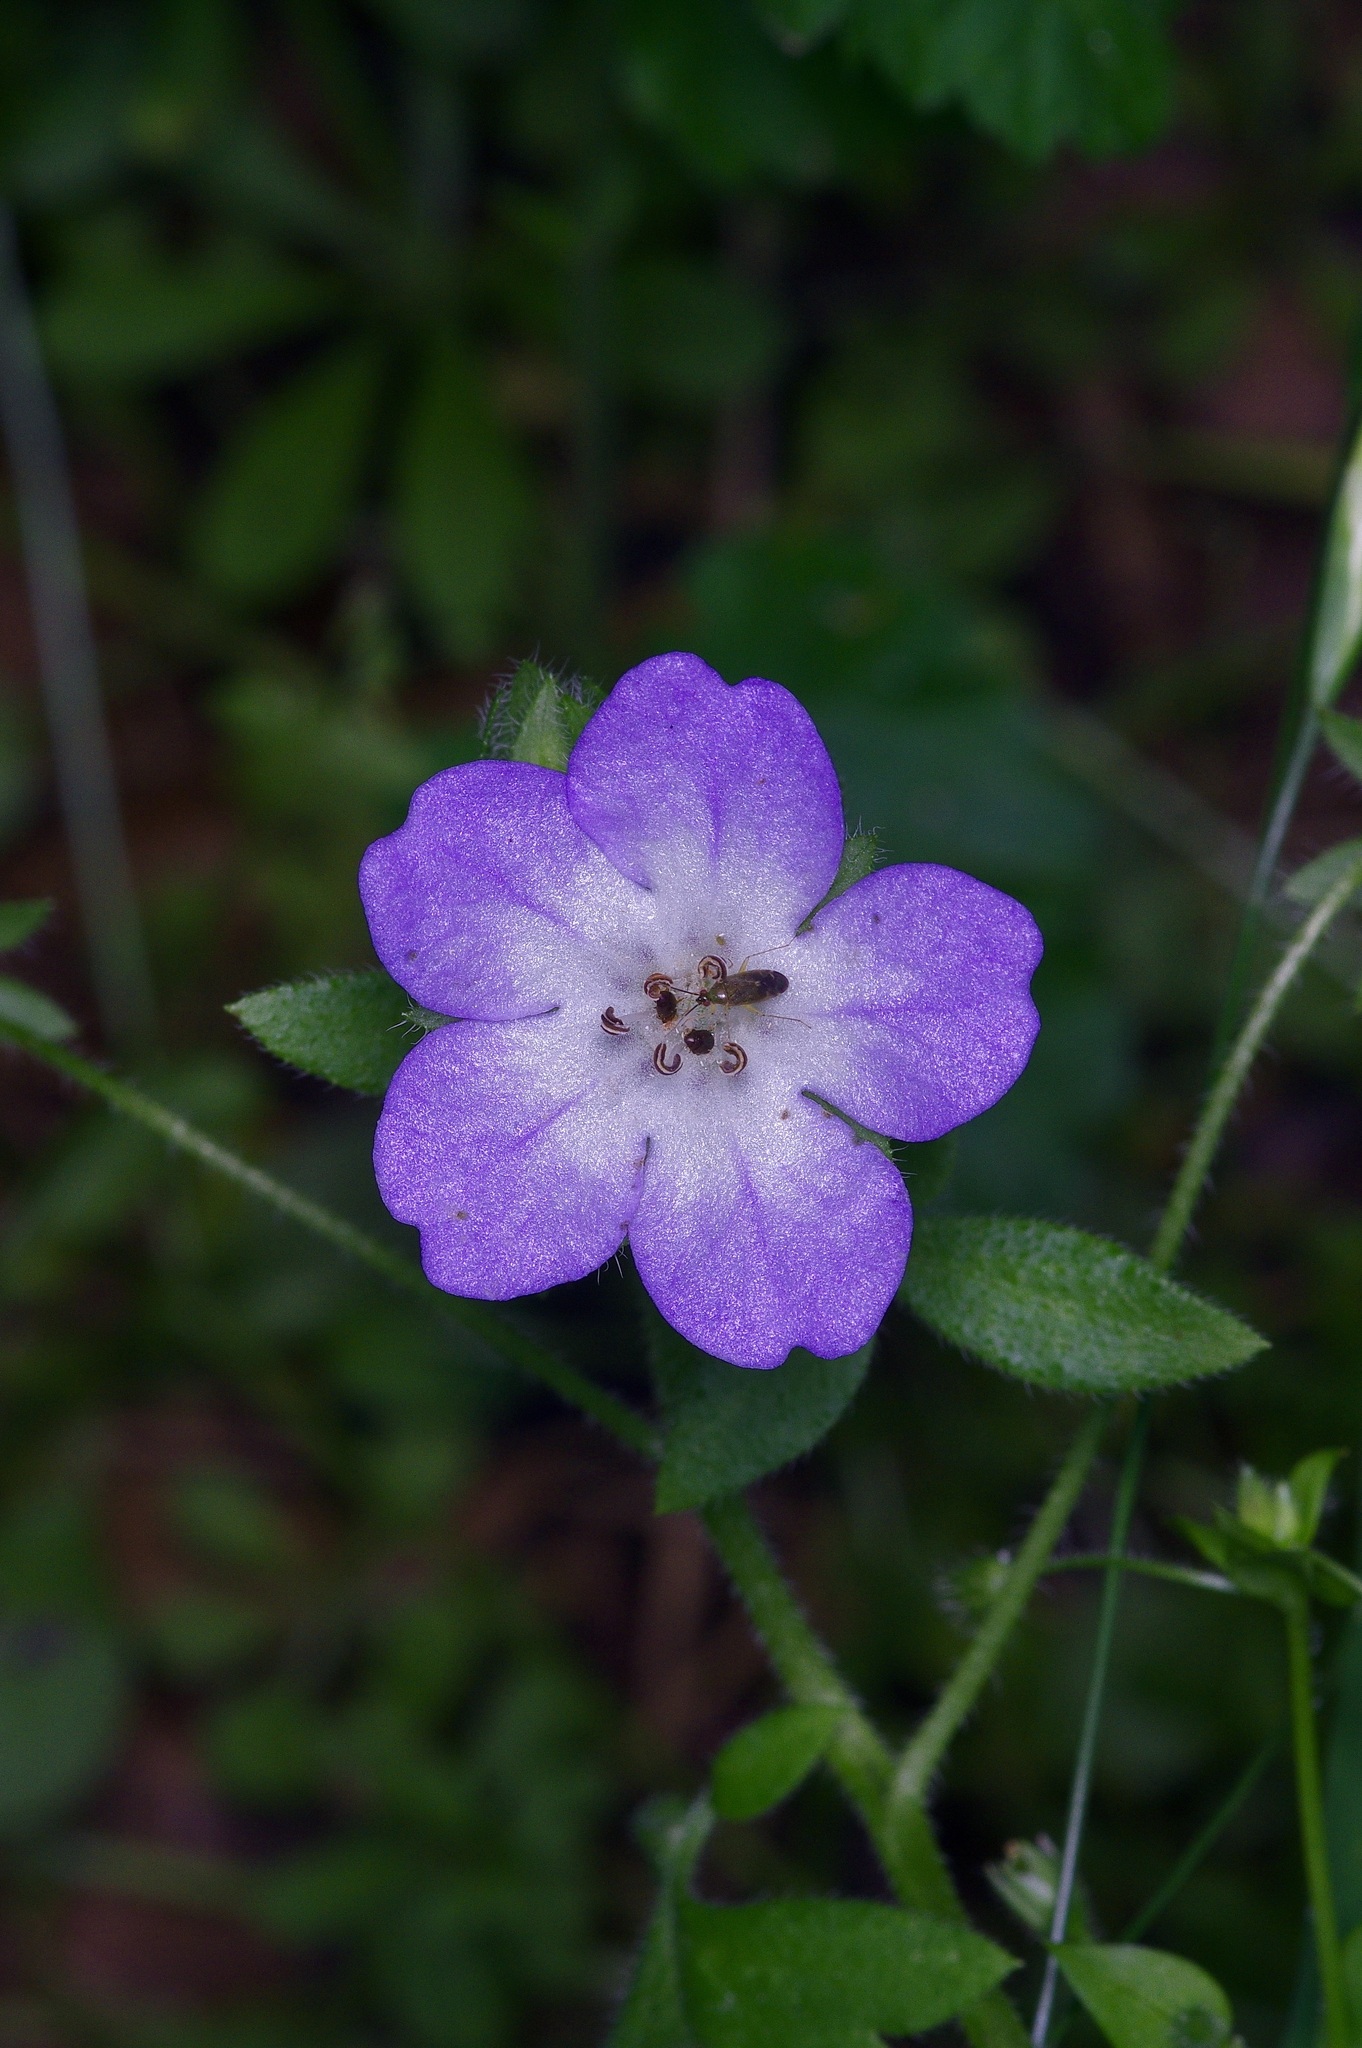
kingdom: Plantae
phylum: Tracheophyta
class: Magnoliopsida
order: Boraginales
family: Hydrophyllaceae
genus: Nemophila
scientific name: Nemophila phacelioides
